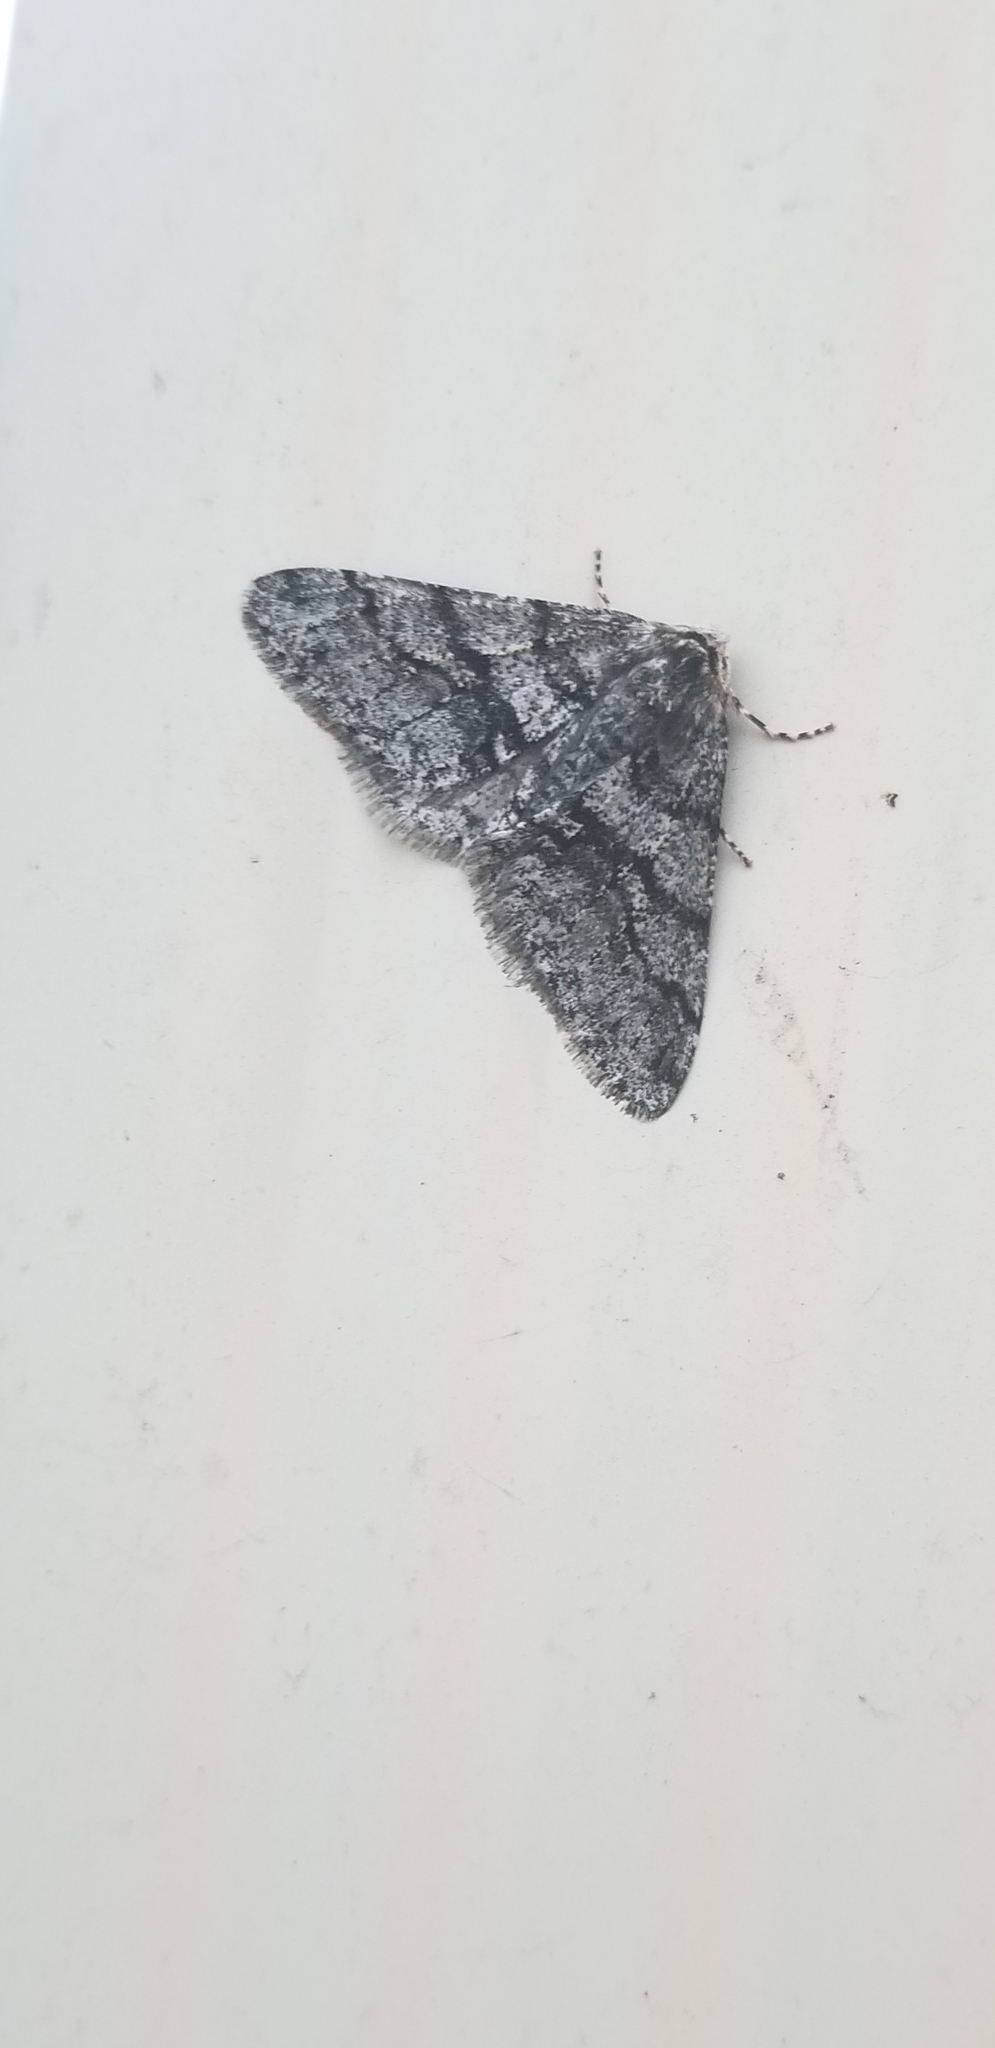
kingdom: Animalia
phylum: Arthropoda
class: Insecta
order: Lepidoptera
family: Geometridae
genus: Phigalia
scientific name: Phigalia titea
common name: Spiny looper
